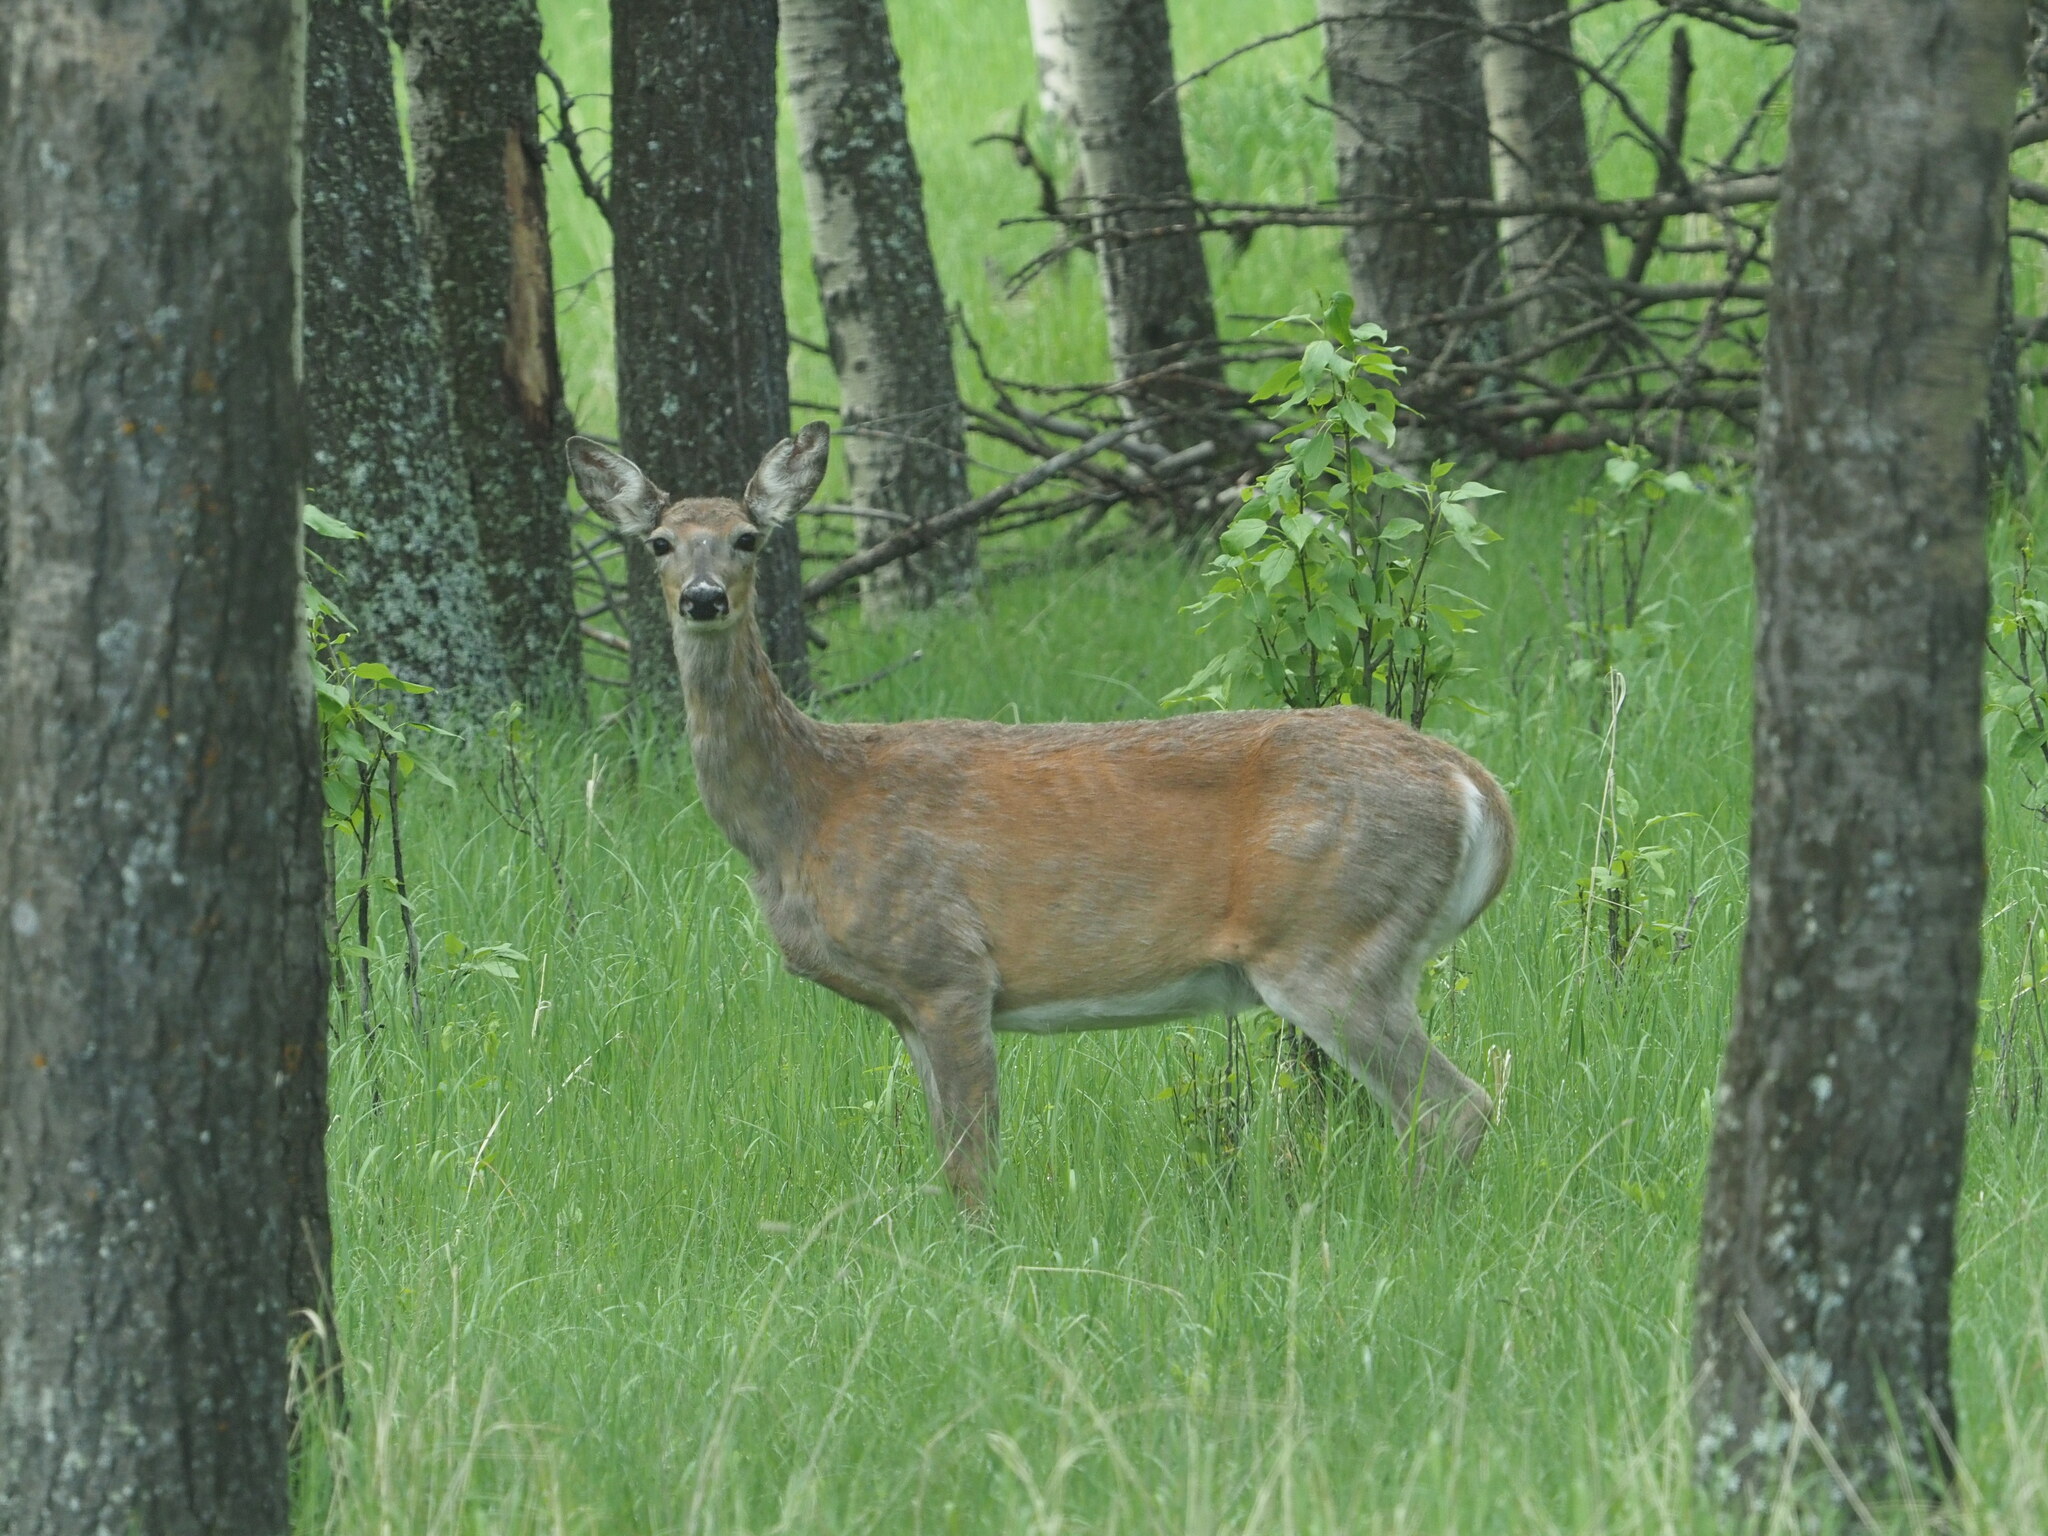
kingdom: Animalia
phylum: Chordata
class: Mammalia
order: Artiodactyla
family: Cervidae
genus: Odocoileus
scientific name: Odocoileus virginianus
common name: White-tailed deer
